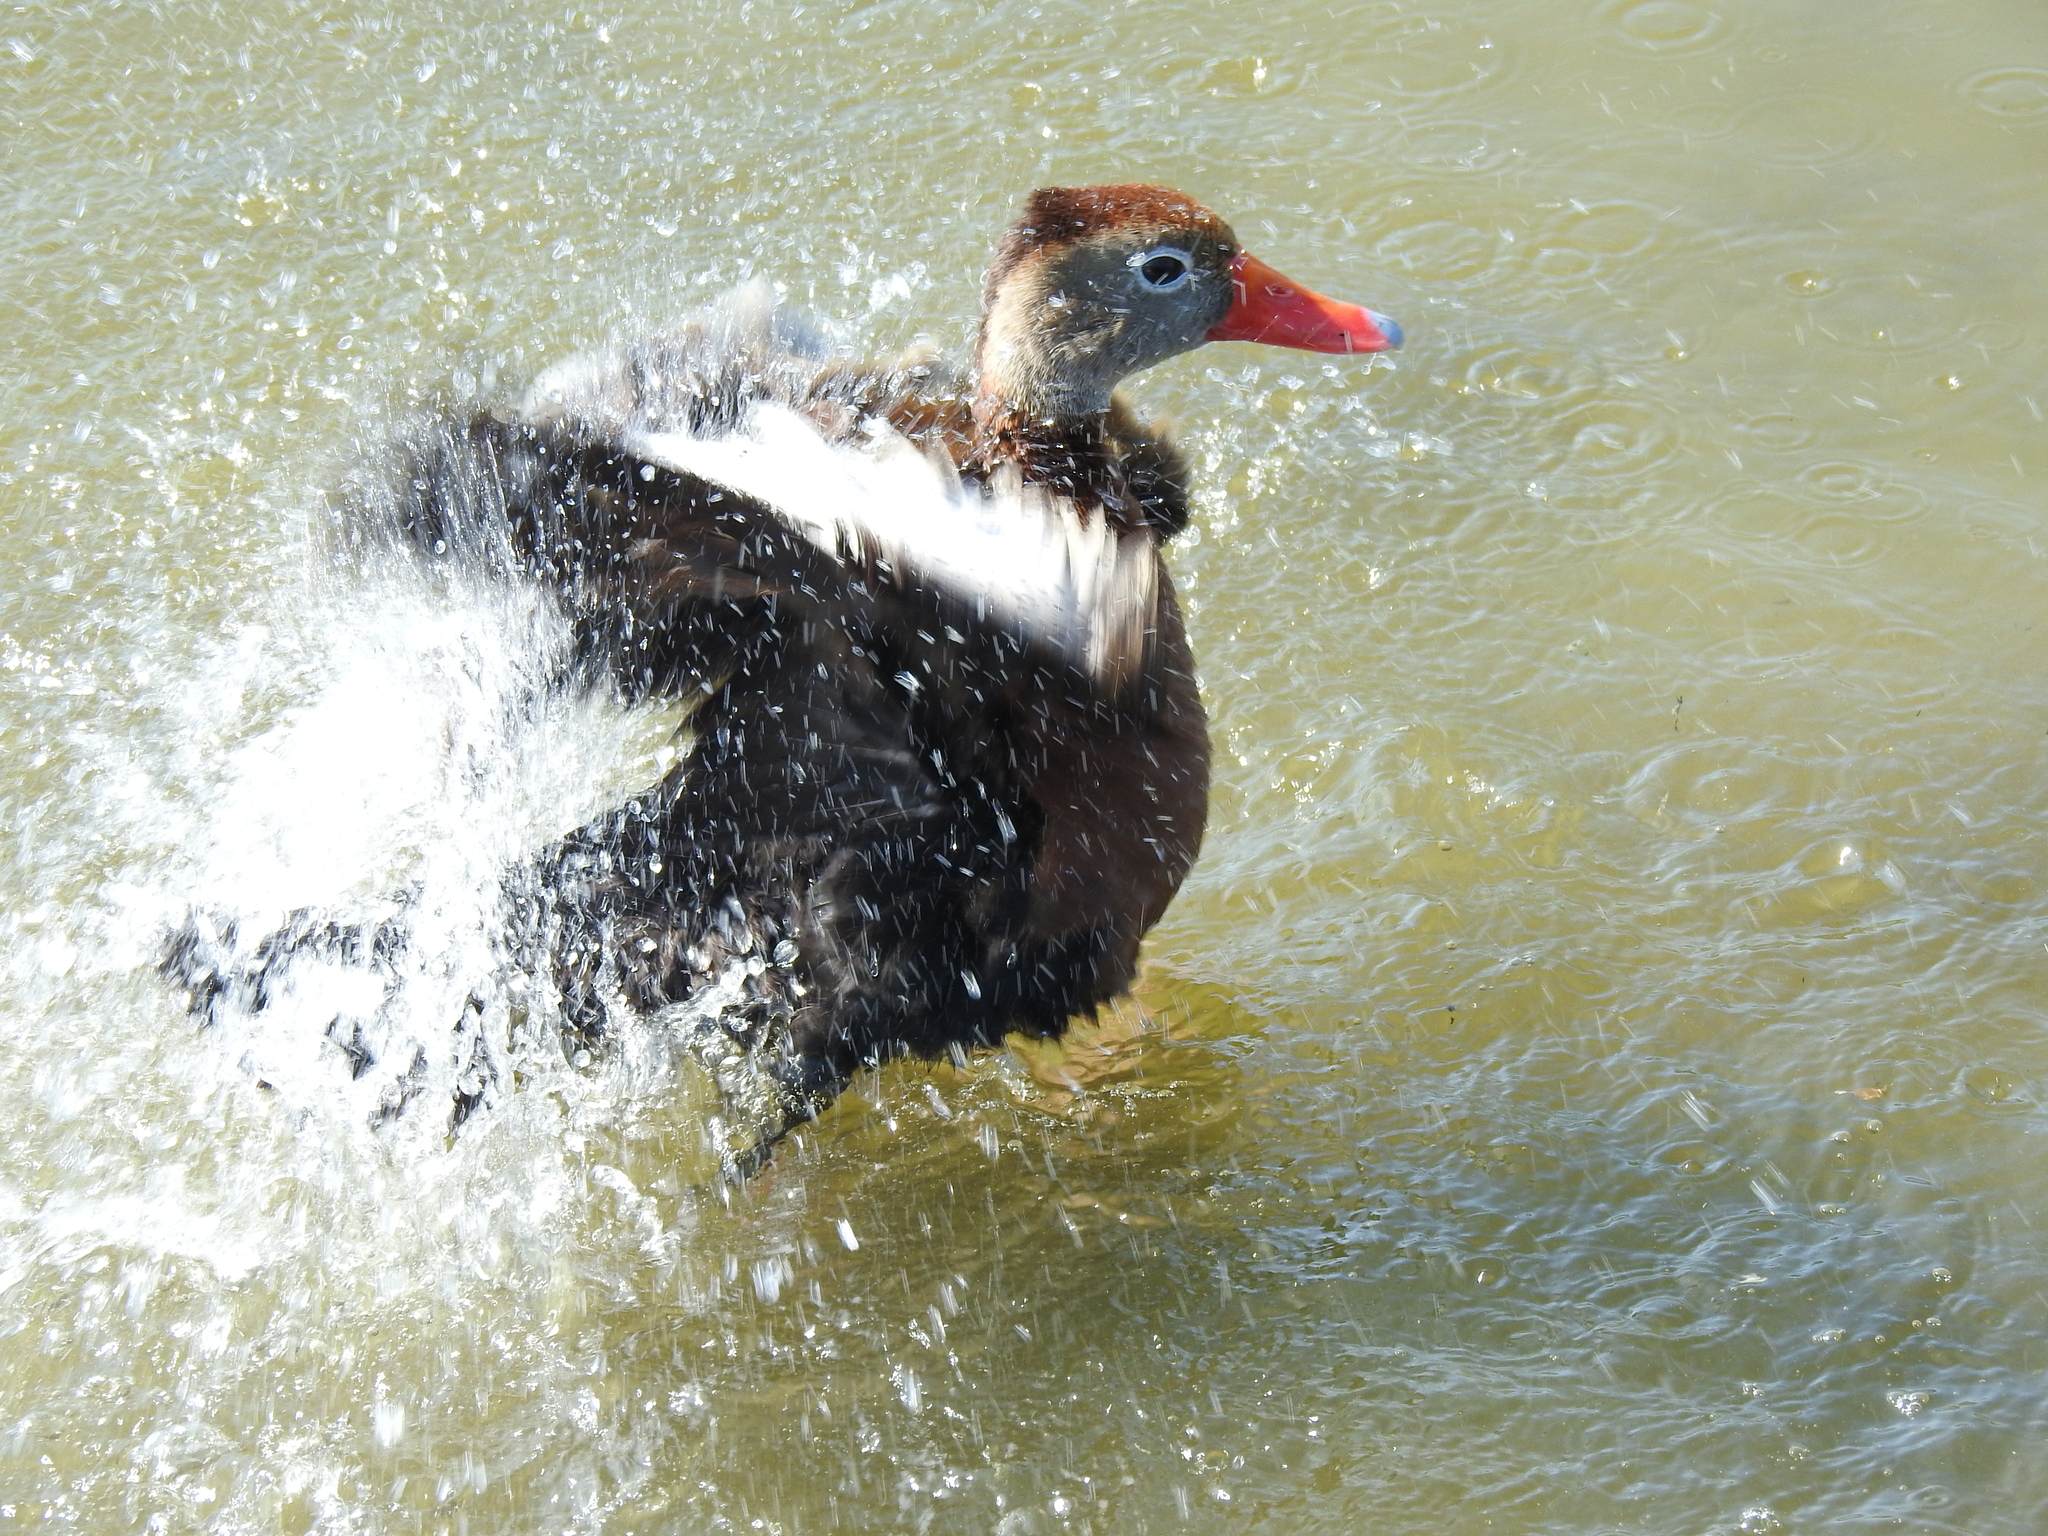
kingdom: Animalia
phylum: Chordata
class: Aves
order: Anseriformes
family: Anatidae
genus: Dendrocygna
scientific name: Dendrocygna autumnalis
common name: Black-bellied whistling duck
